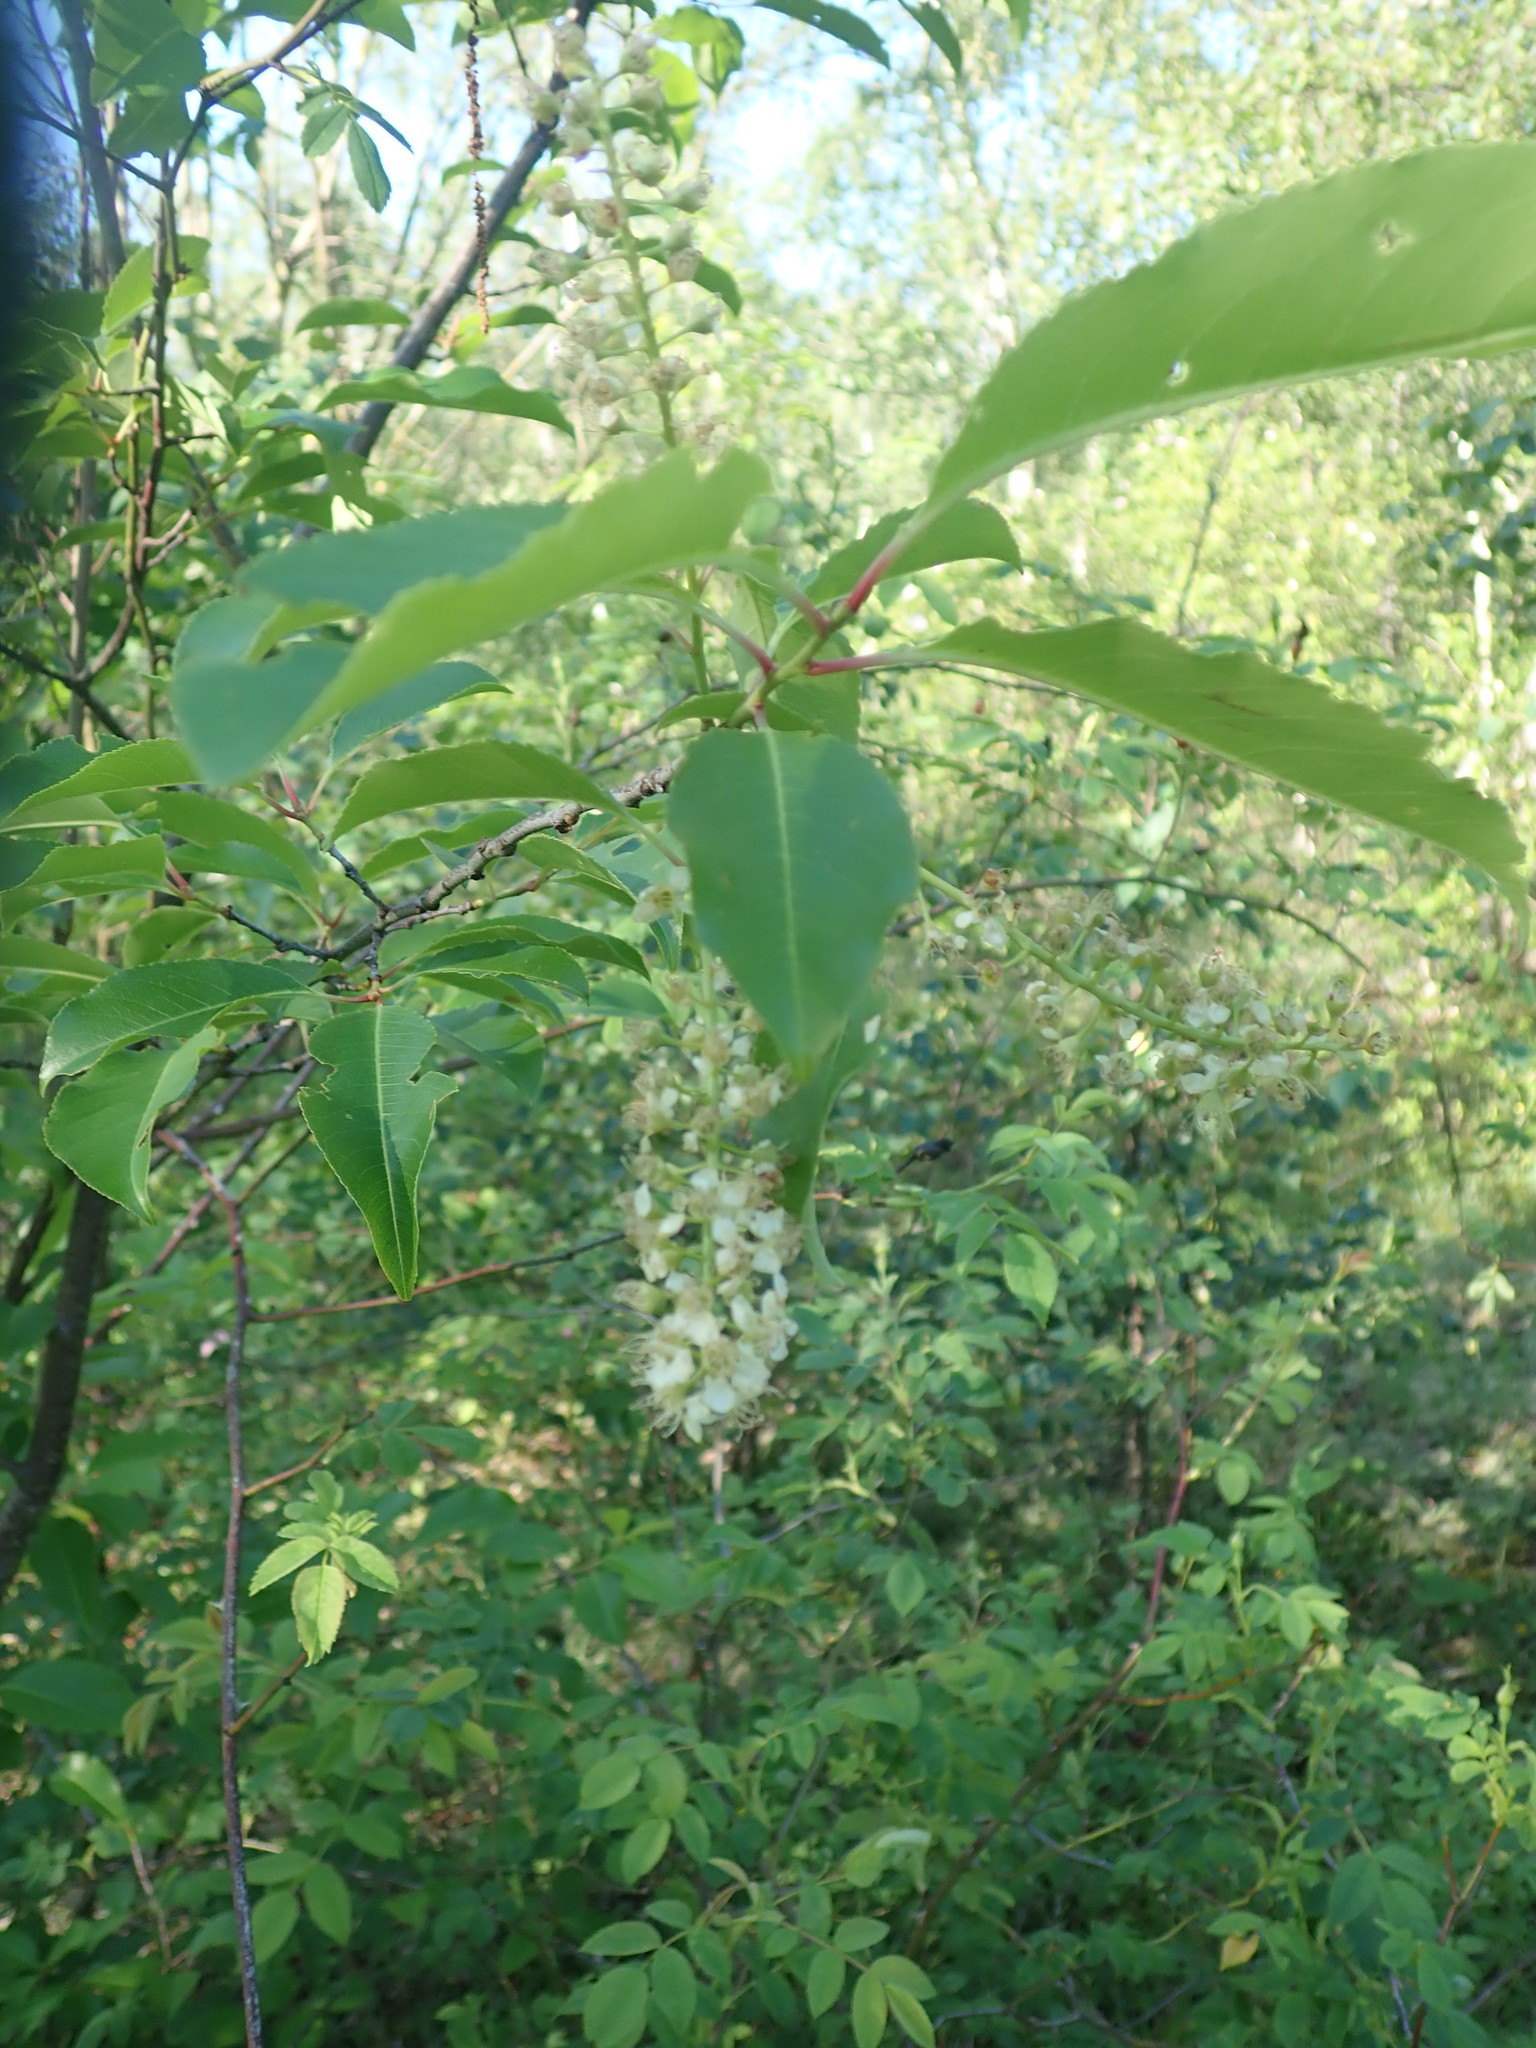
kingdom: Plantae
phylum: Tracheophyta
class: Magnoliopsida
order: Rosales
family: Rosaceae
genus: Prunus
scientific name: Prunus serotina
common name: Black cherry
